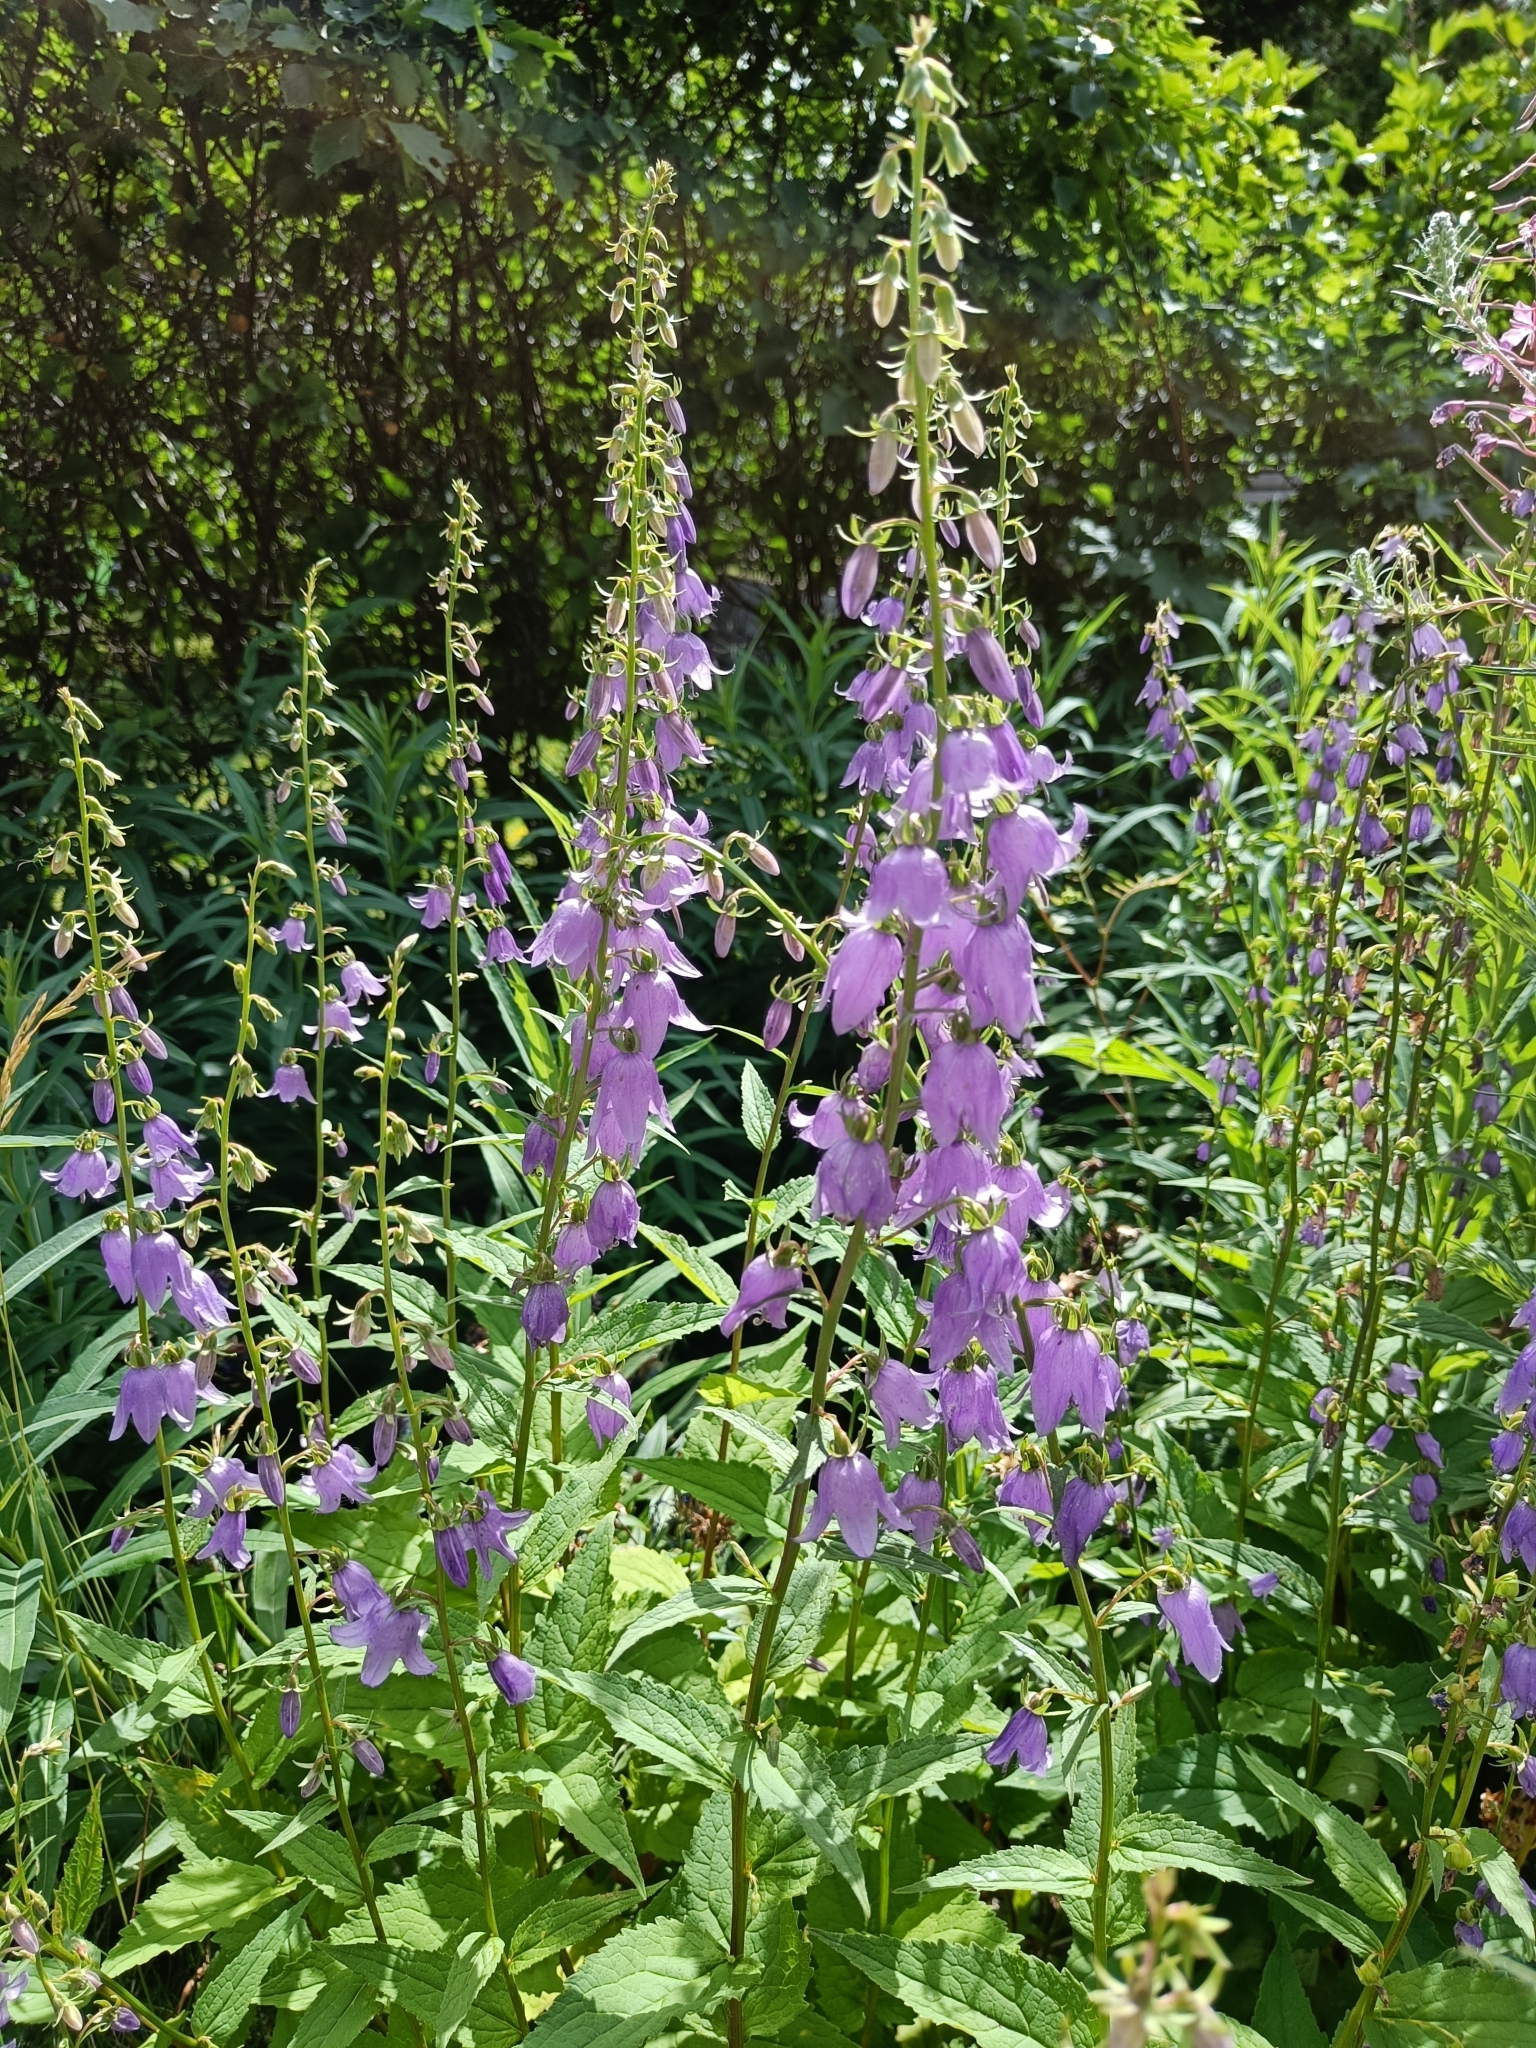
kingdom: Plantae
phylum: Tracheophyta
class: Magnoliopsida
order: Asterales
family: Campanulaceae
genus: Campanula
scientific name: Campanula rapunculoides
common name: Creeping bellflower
